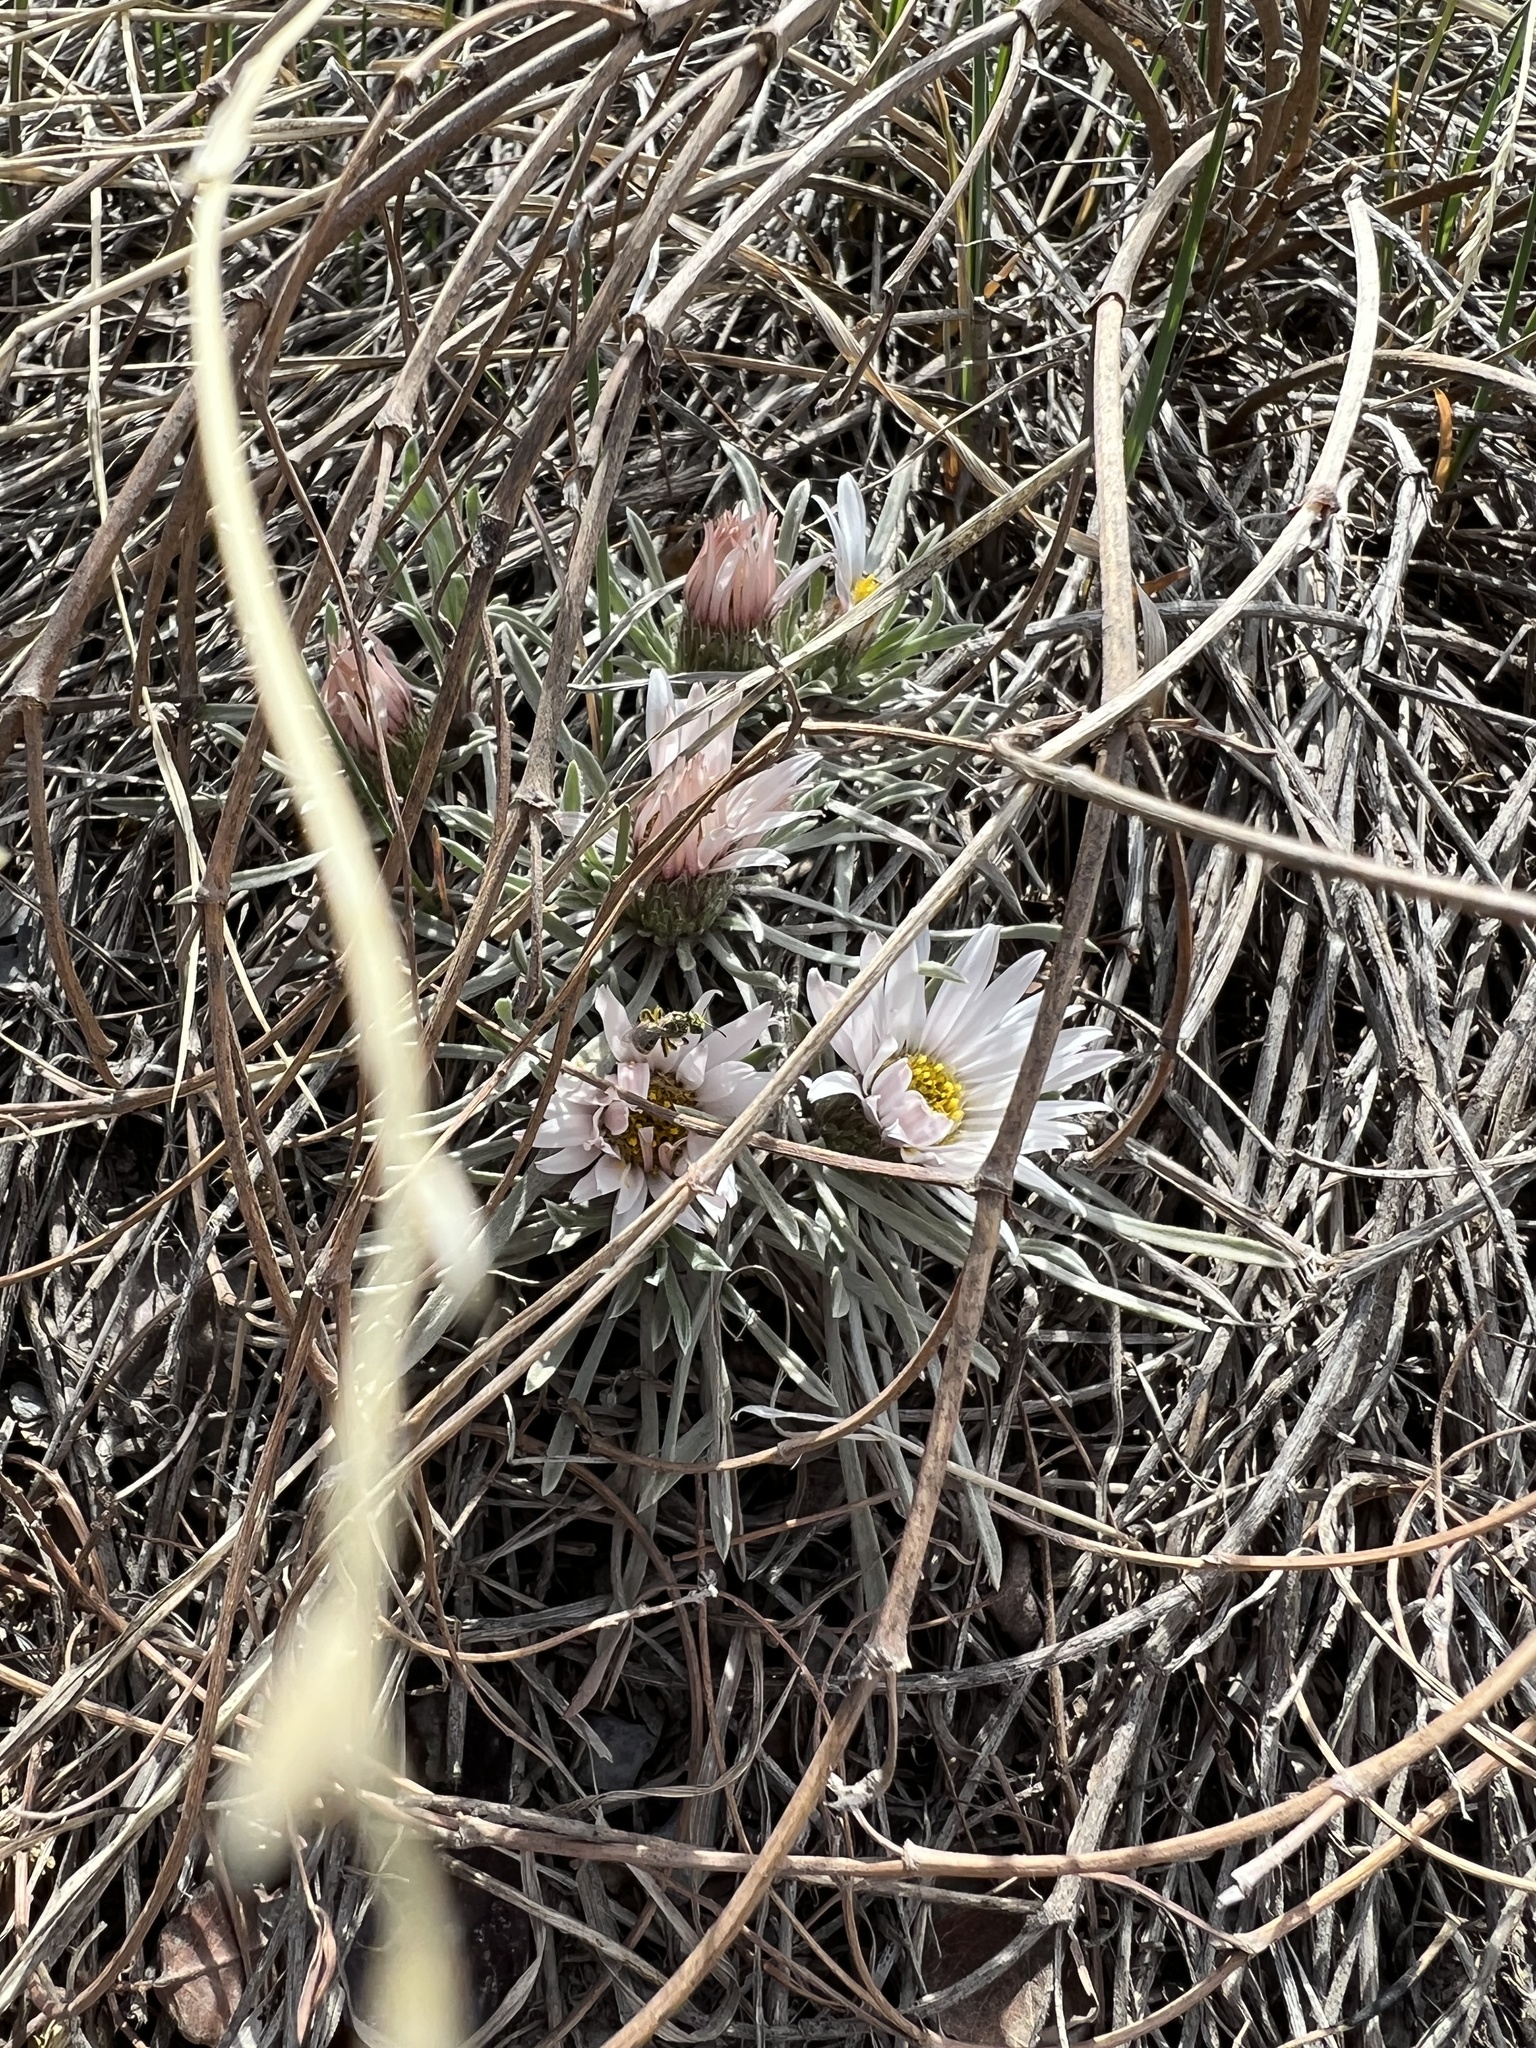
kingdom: Plantae
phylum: Tracheophyta
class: Magnoliopsida
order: Asterales
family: Asteraceae
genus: Townsendia
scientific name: Townsendia hookeri
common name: Hooker's townsend daisy
